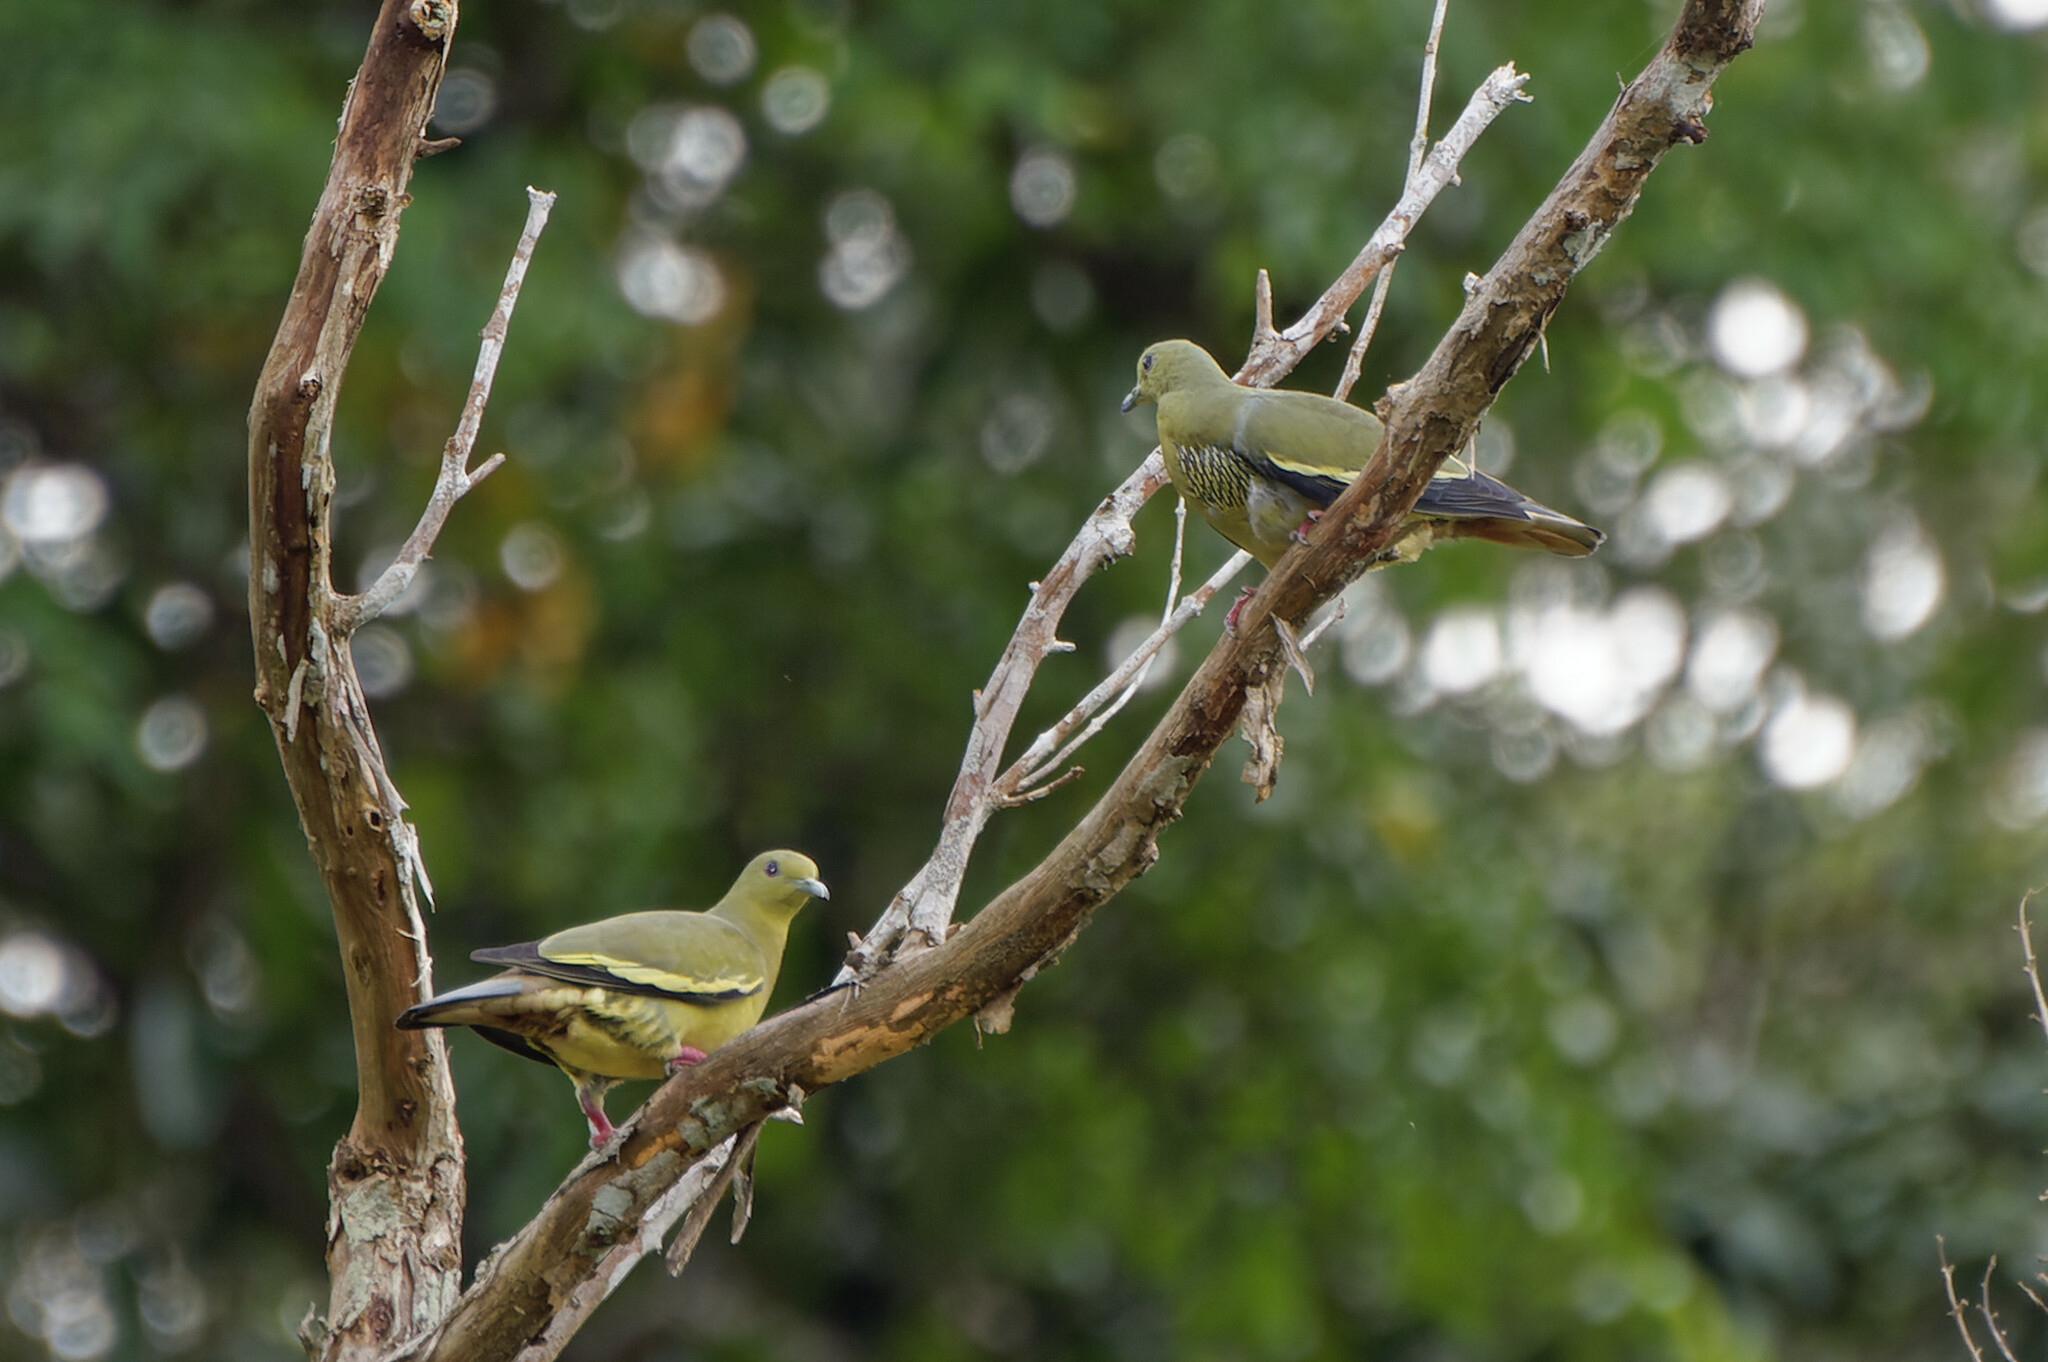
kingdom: Animalia
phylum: Chordata
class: Aves
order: Columbiformes
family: Columbidae
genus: Treron
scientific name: Treron vernans
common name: Pink-necked green pigeon
